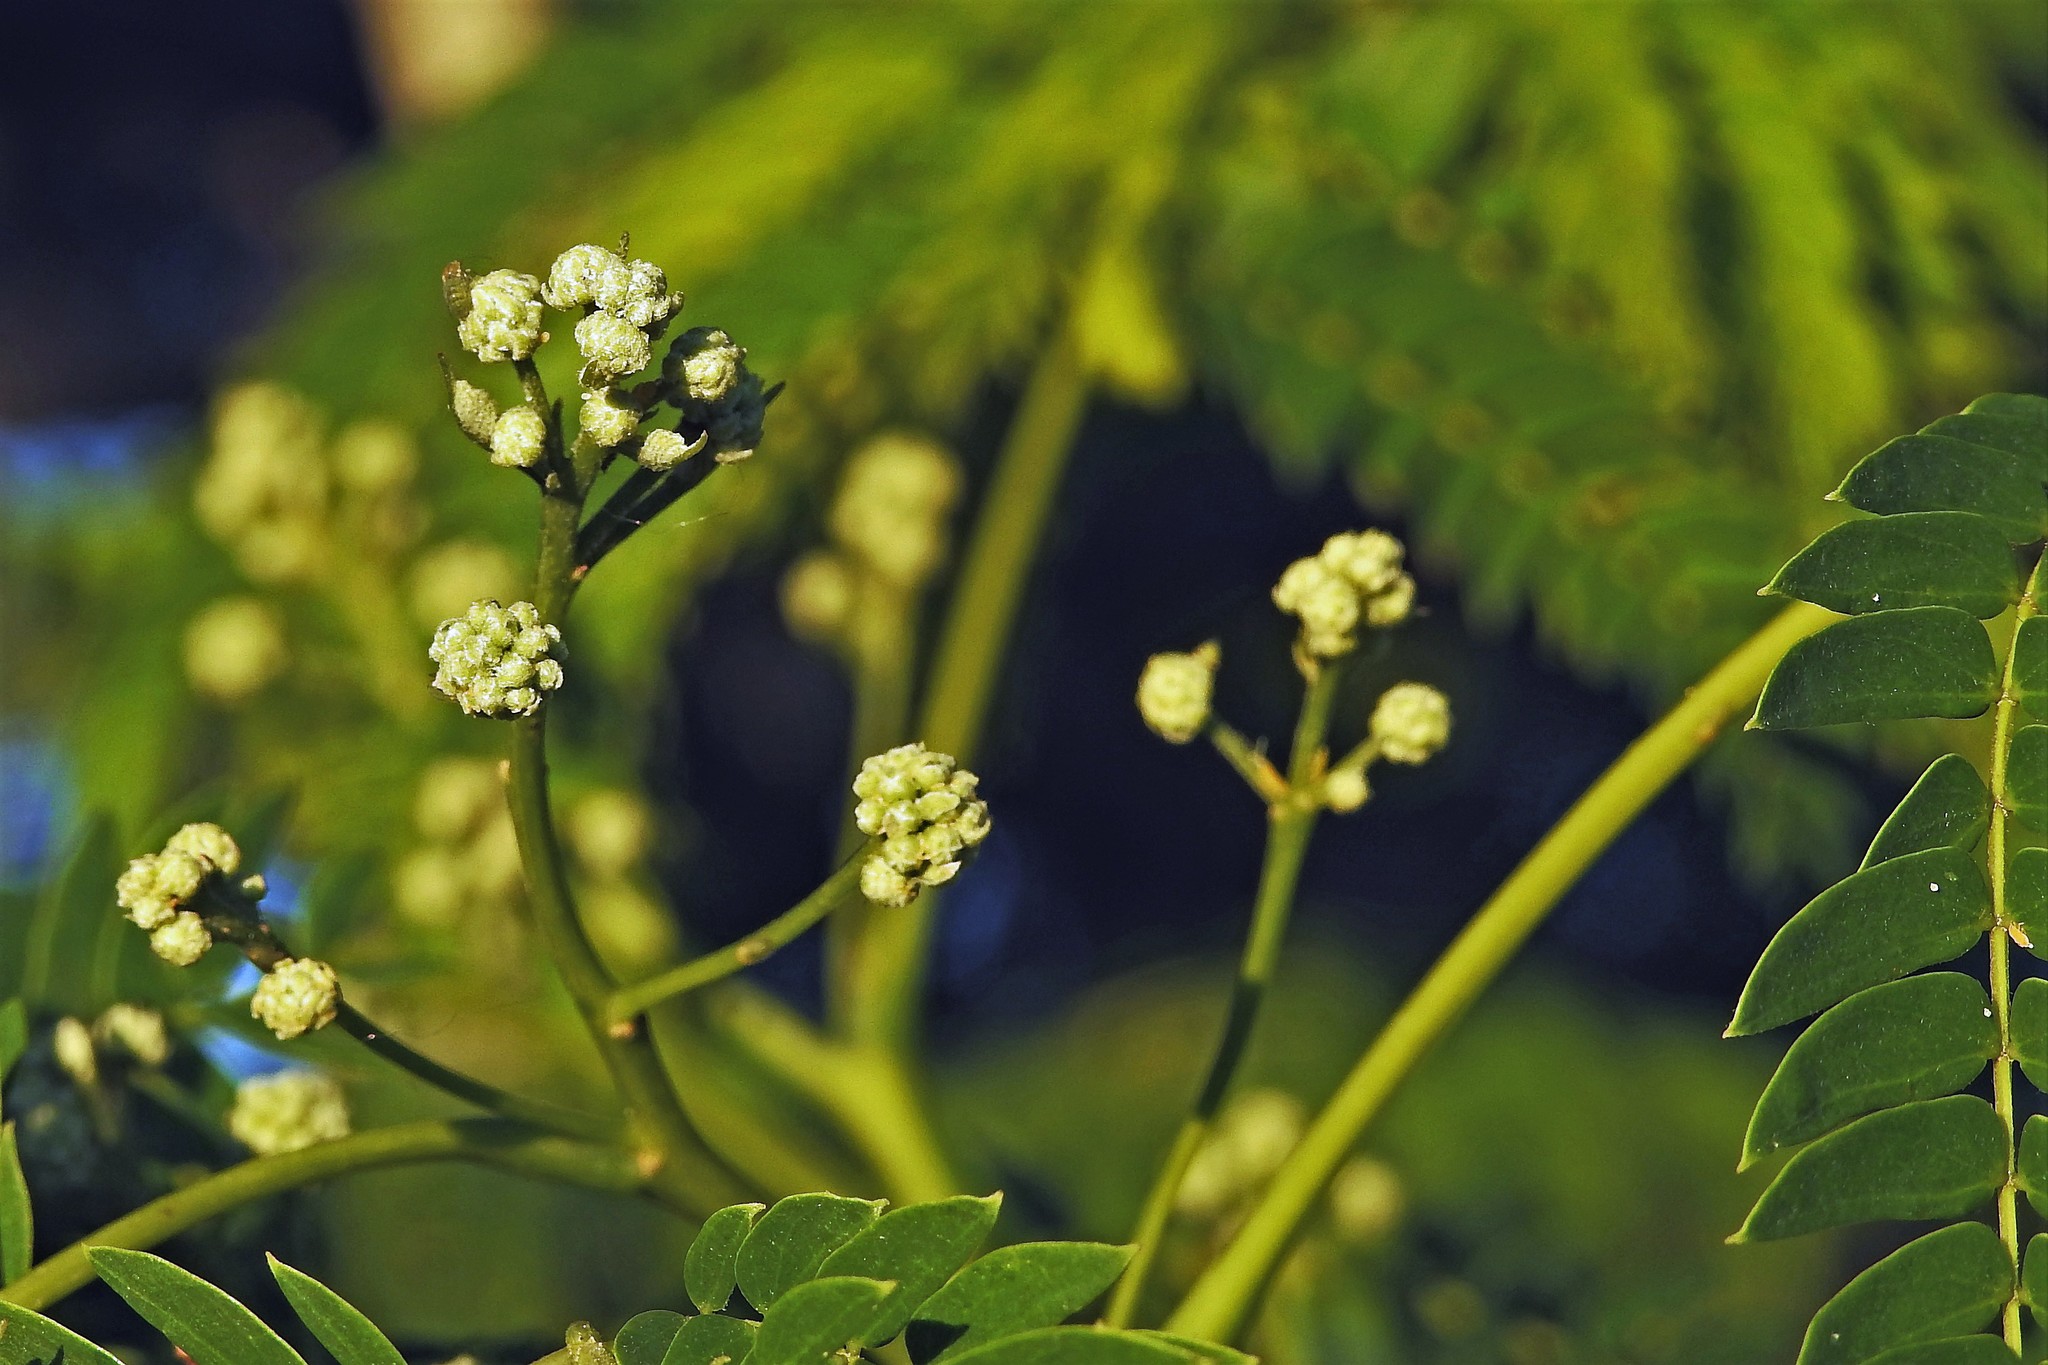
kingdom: Plantae
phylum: Tracheophyta
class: Magnoliopsida
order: Fabales
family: Fabaceae
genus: Enterolobium
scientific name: Enterolobium contortisiliquum
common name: Pacara earpod tree
